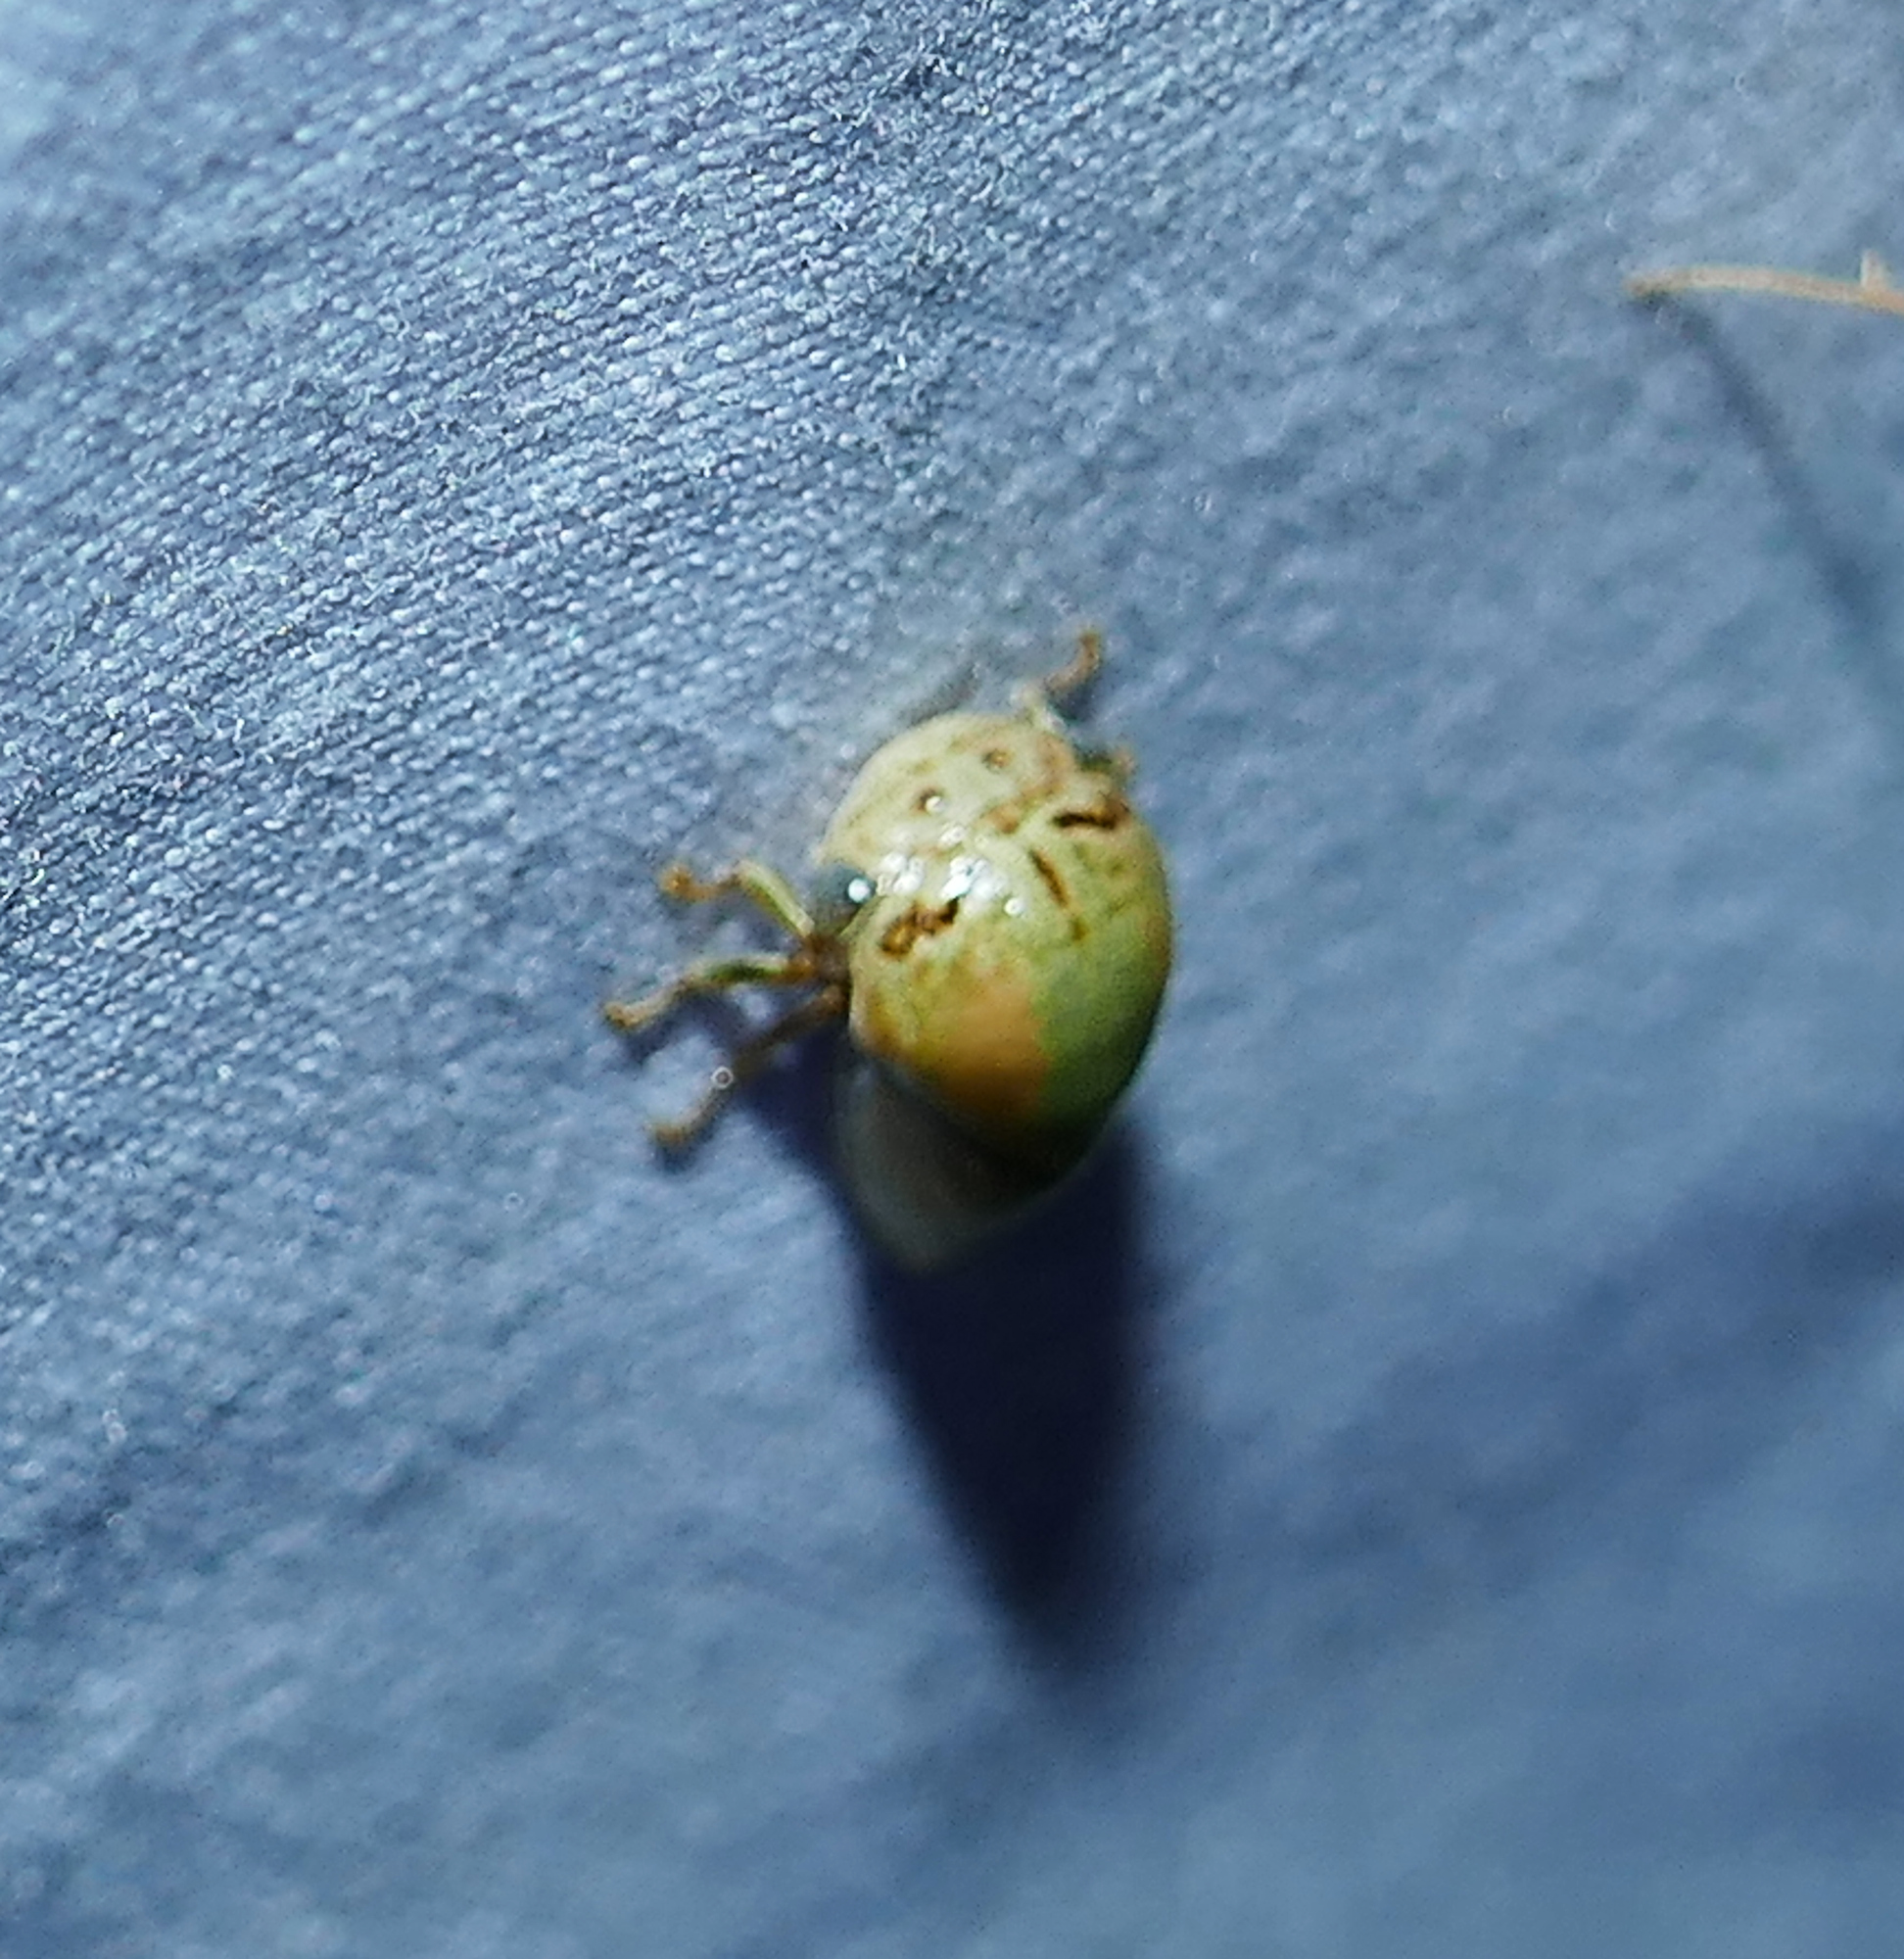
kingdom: Animalia
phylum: Arthropoda
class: Insecta
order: Hemiptera
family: Membracidae
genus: Stictopelta
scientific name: Stictopelta marmorata
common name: Treehopper
